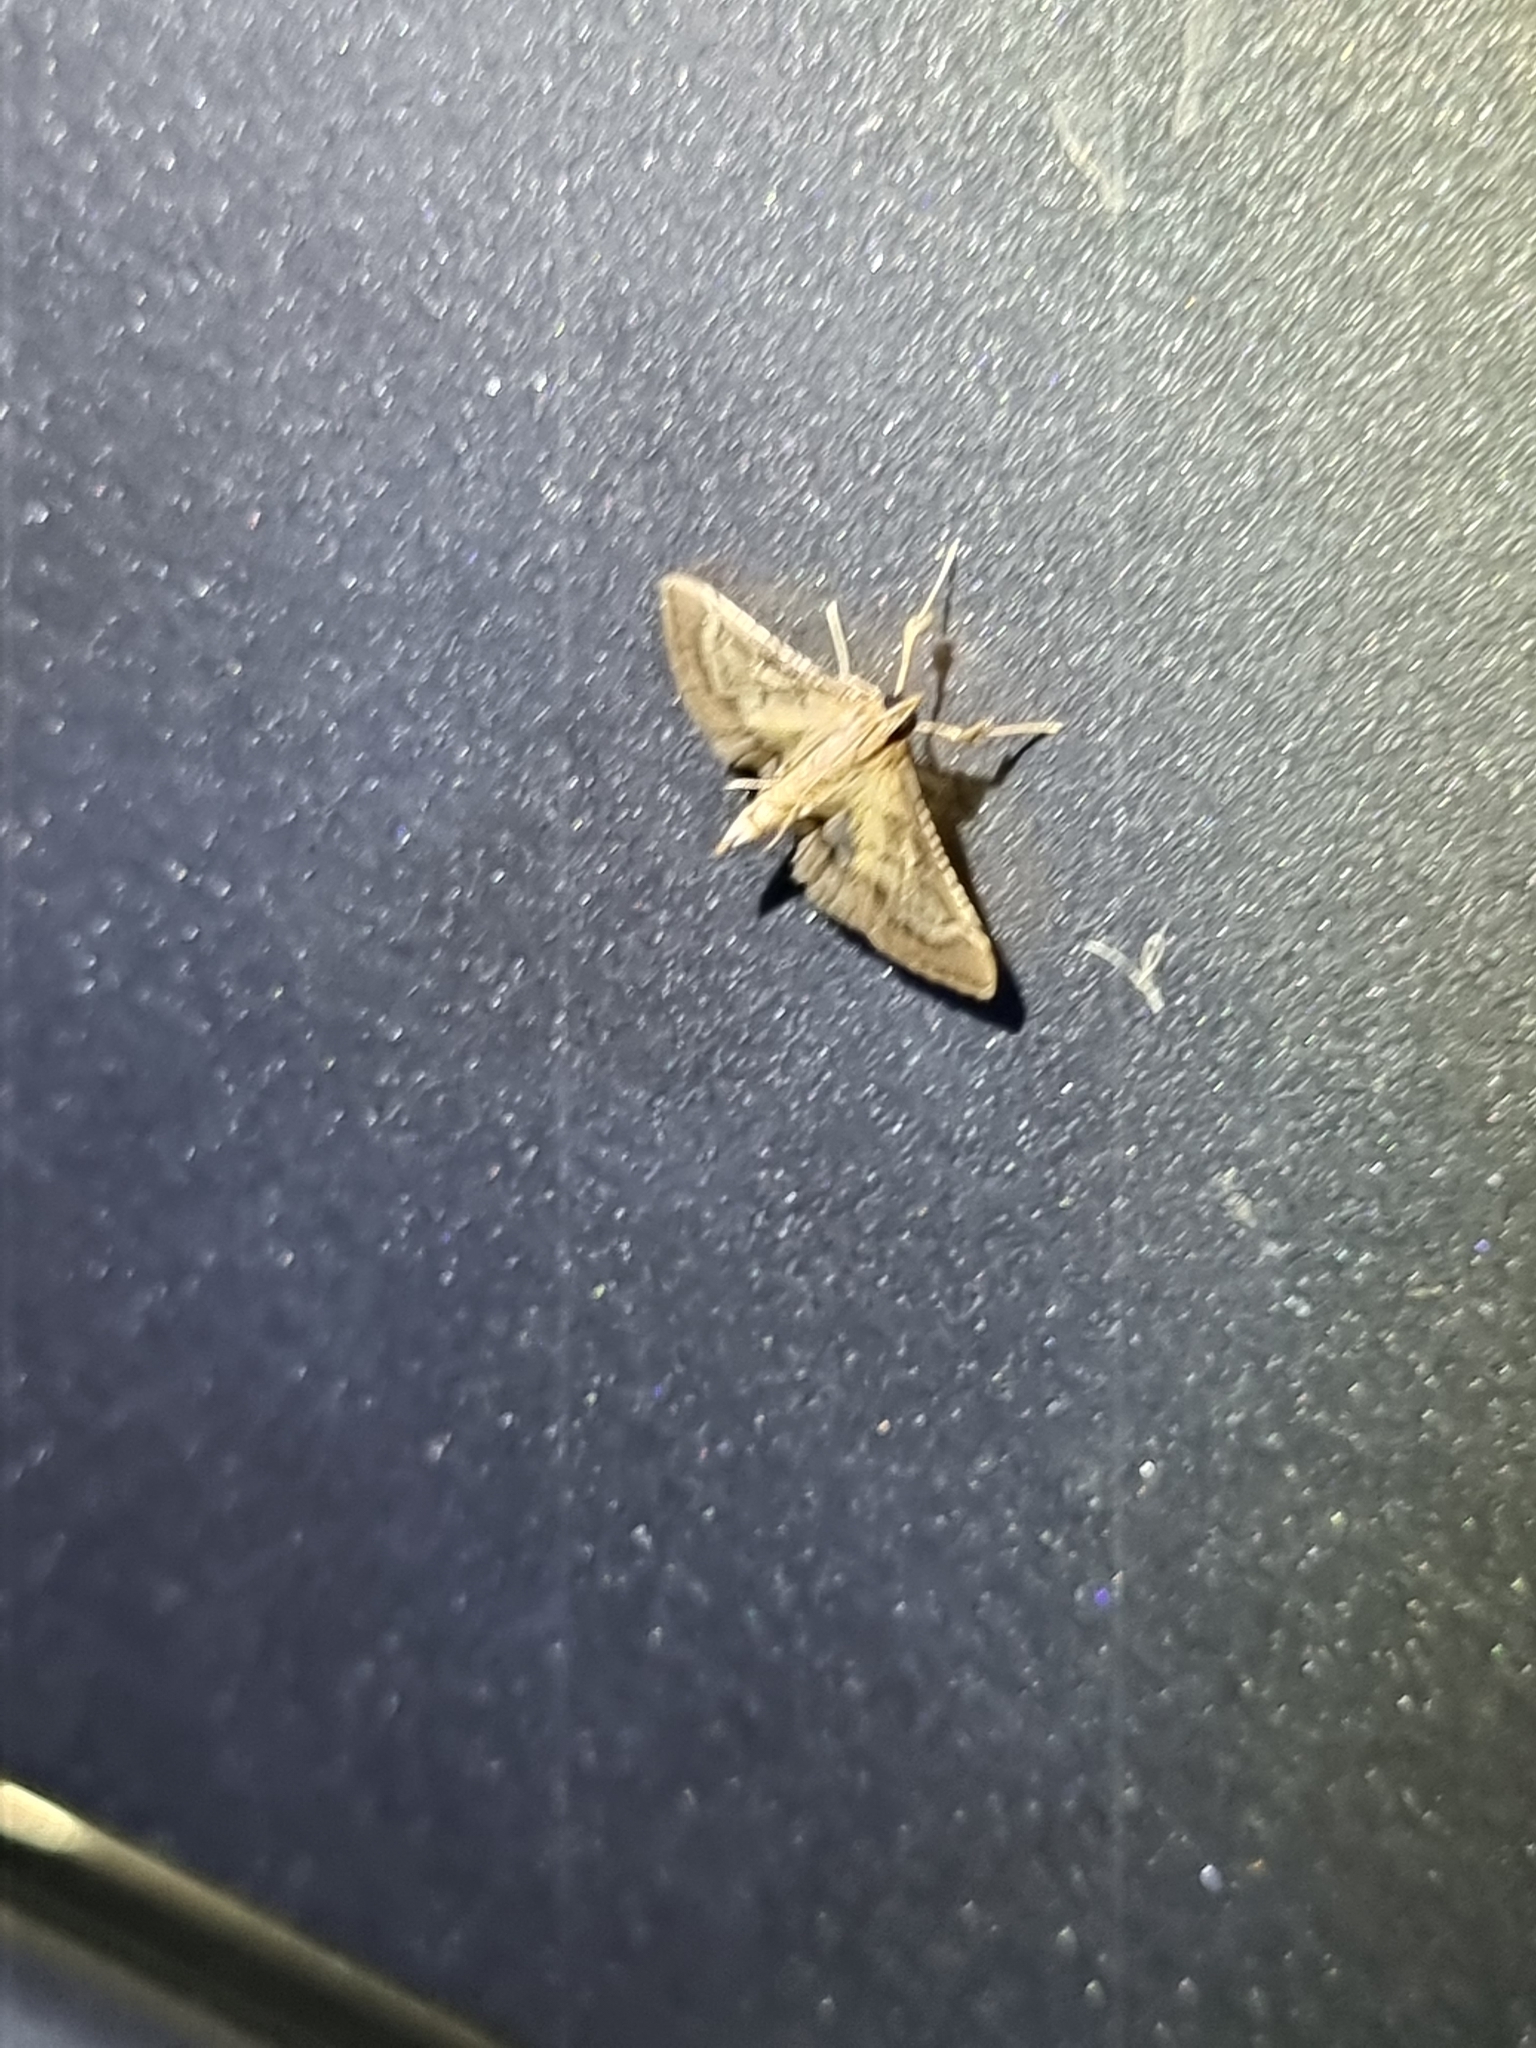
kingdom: Animalia
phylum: Arthropoda
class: Insecta
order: Lepidoptera
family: Crambidae
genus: Cnaphalocrocis
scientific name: Cnaphalocrocis poeyalis
